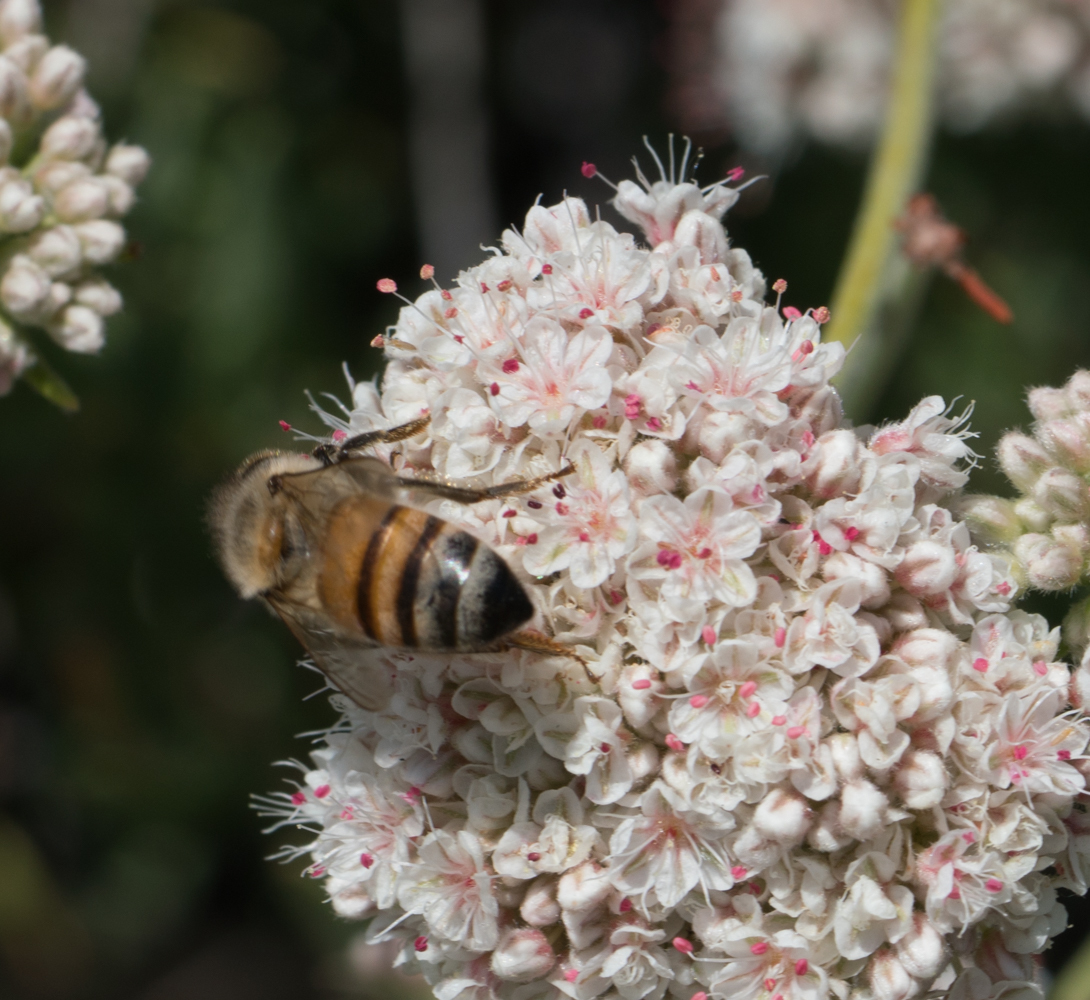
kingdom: Animalia
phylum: Arthropoda
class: Insecta
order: Hymenoptera
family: Apidae
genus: Apis
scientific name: Apis mellifera
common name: Honey bee
